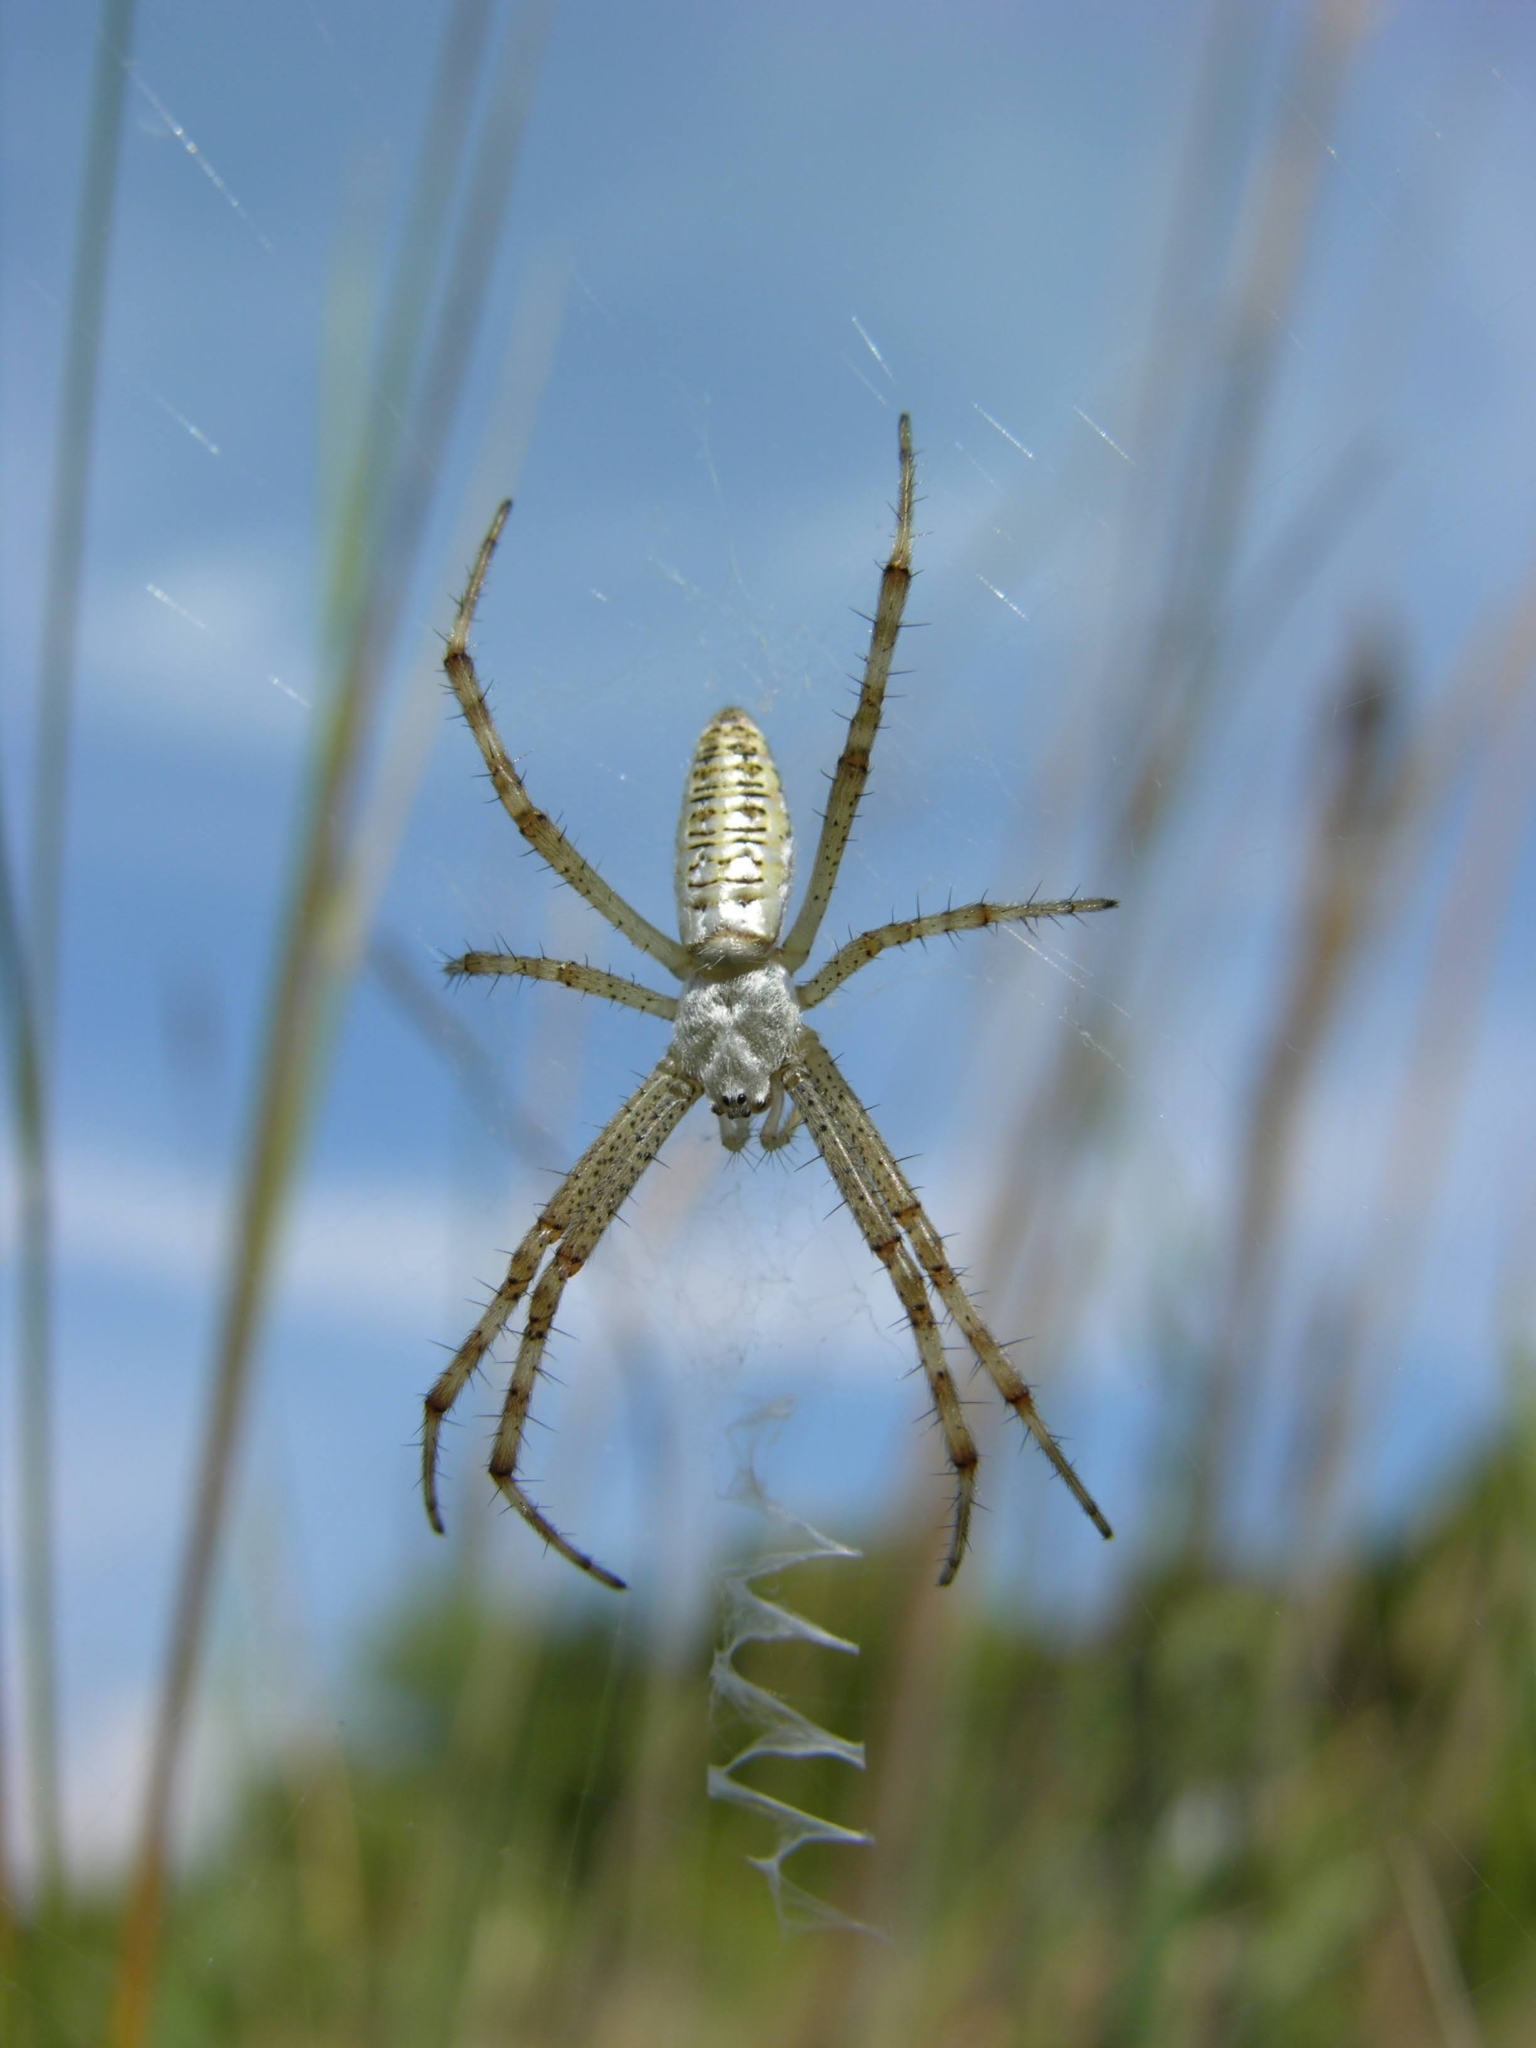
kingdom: Animalia
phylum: Arthropoda
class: Arachnida
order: Araneae
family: Araneidae
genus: Argiope
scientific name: Argiope bruennichi
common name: Wasp spider
